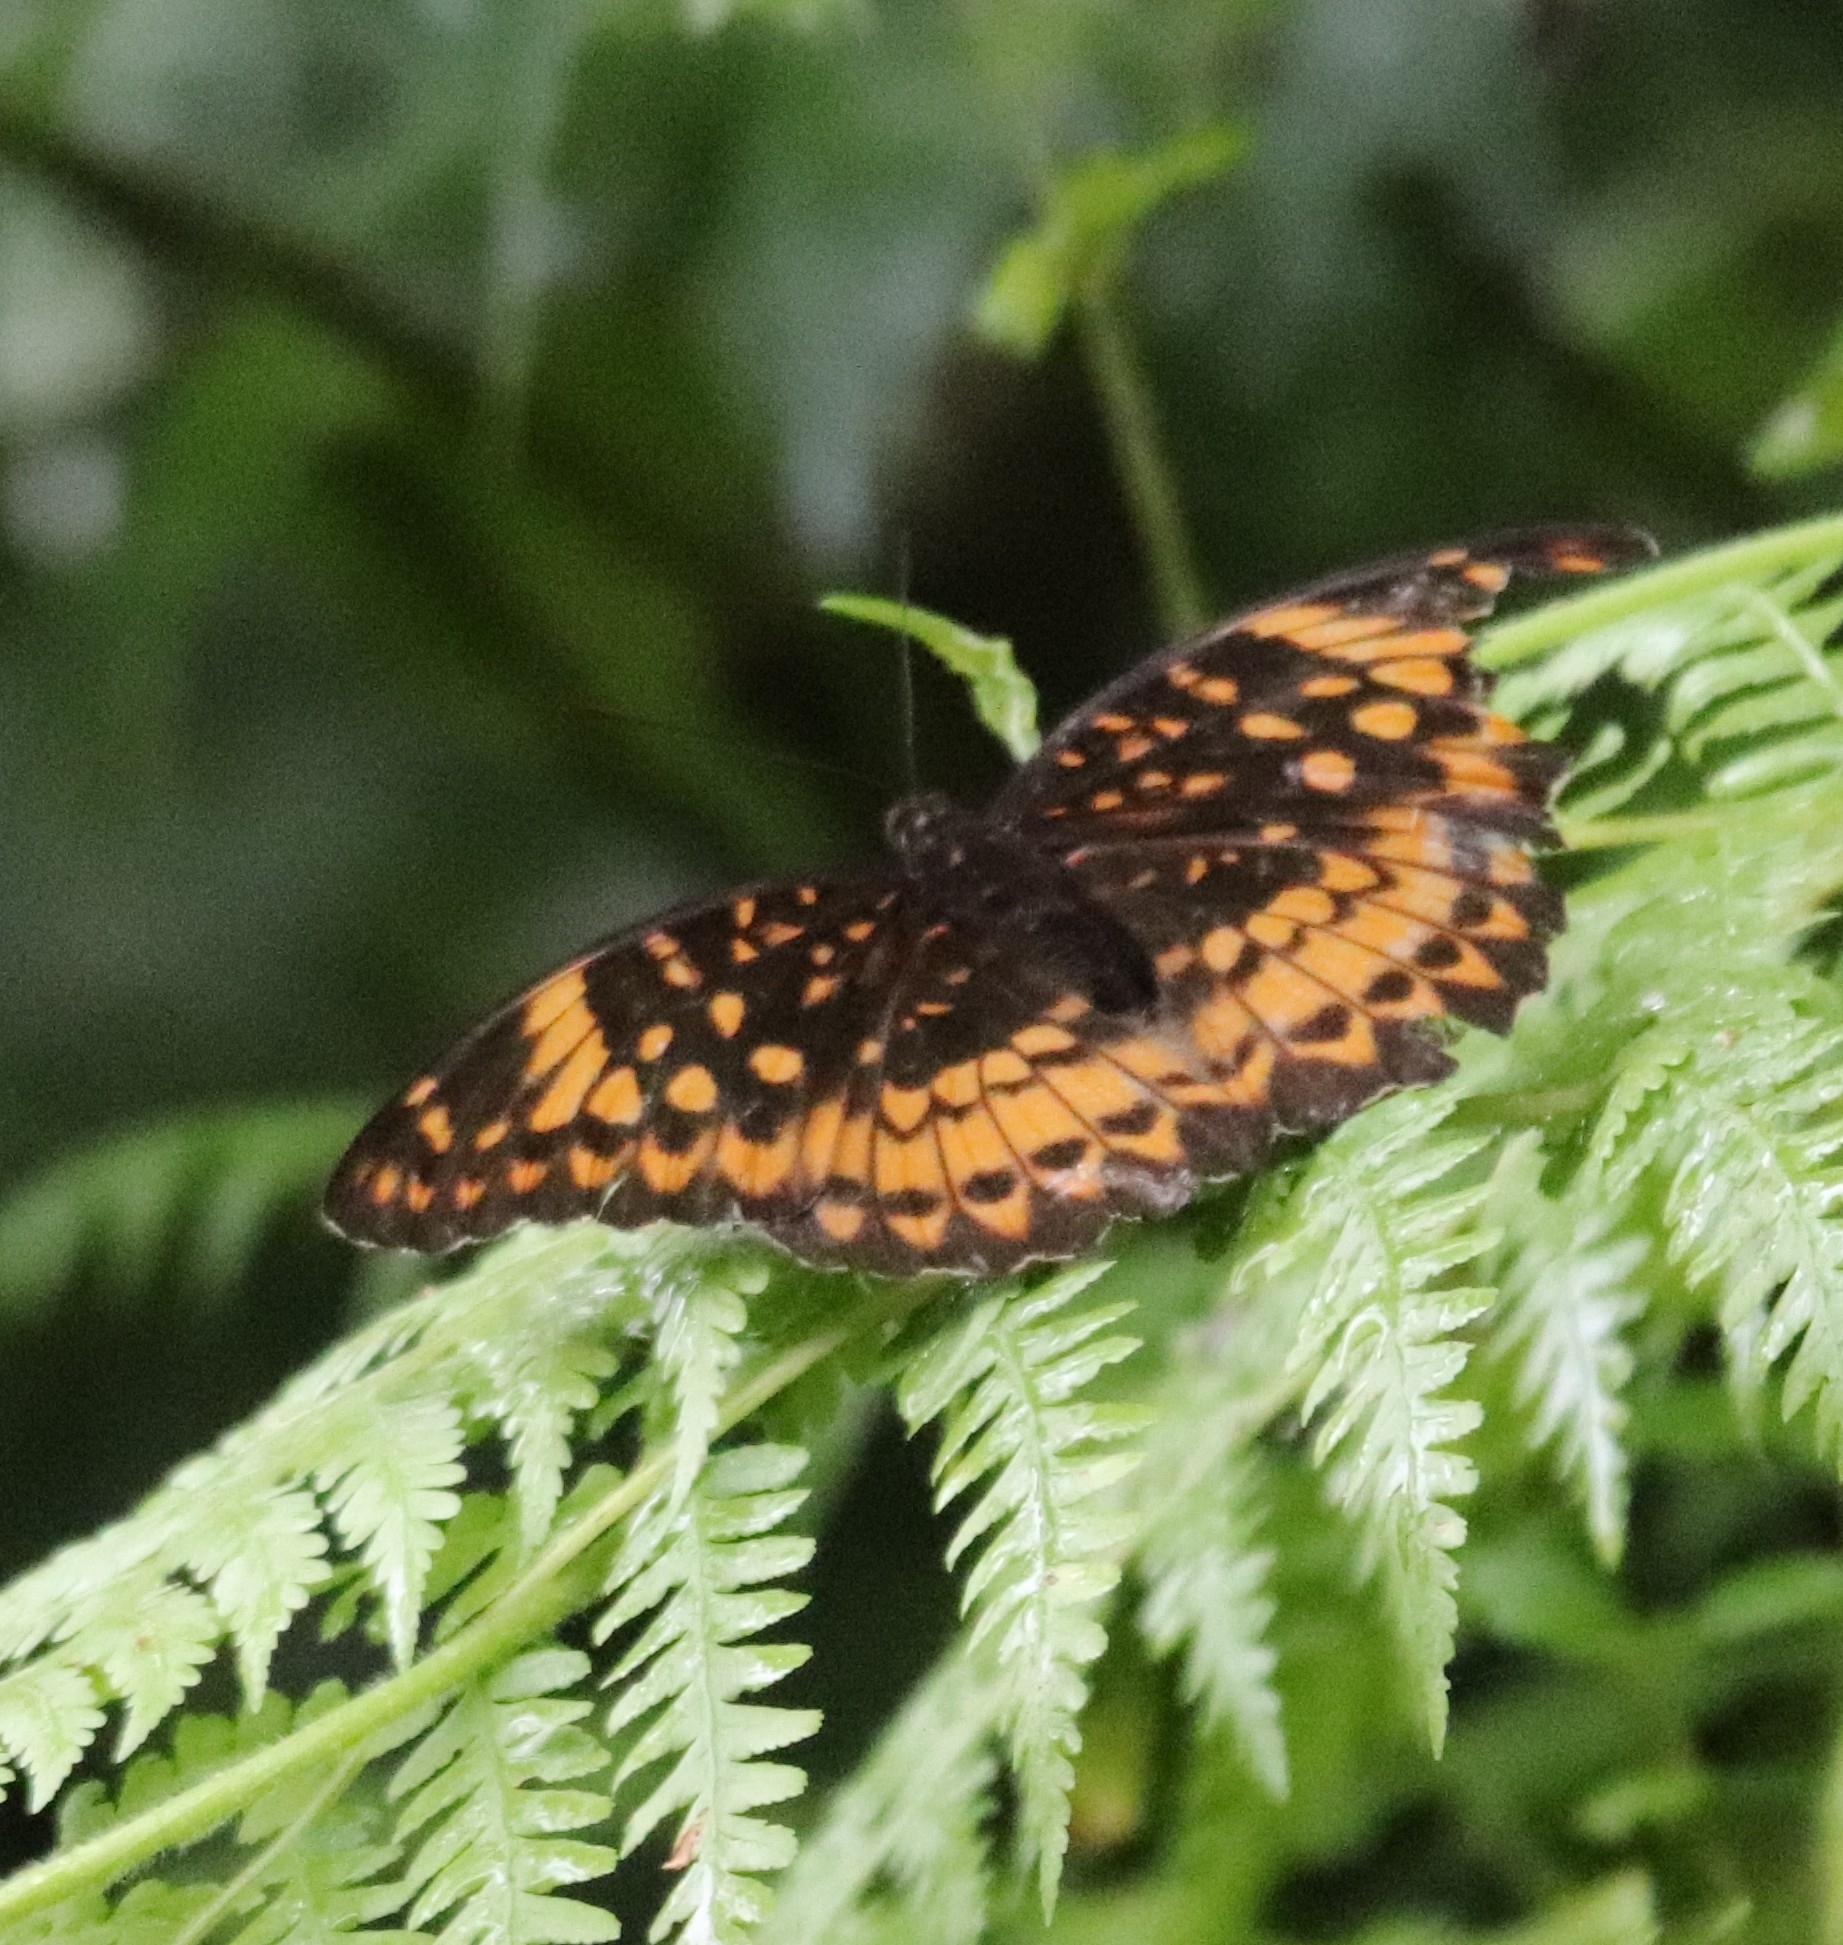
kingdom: Animalia
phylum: Arthropoda
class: Insecta
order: Lepidoptera
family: Nymphalidae
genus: Lexias
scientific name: Lexias aeetes
